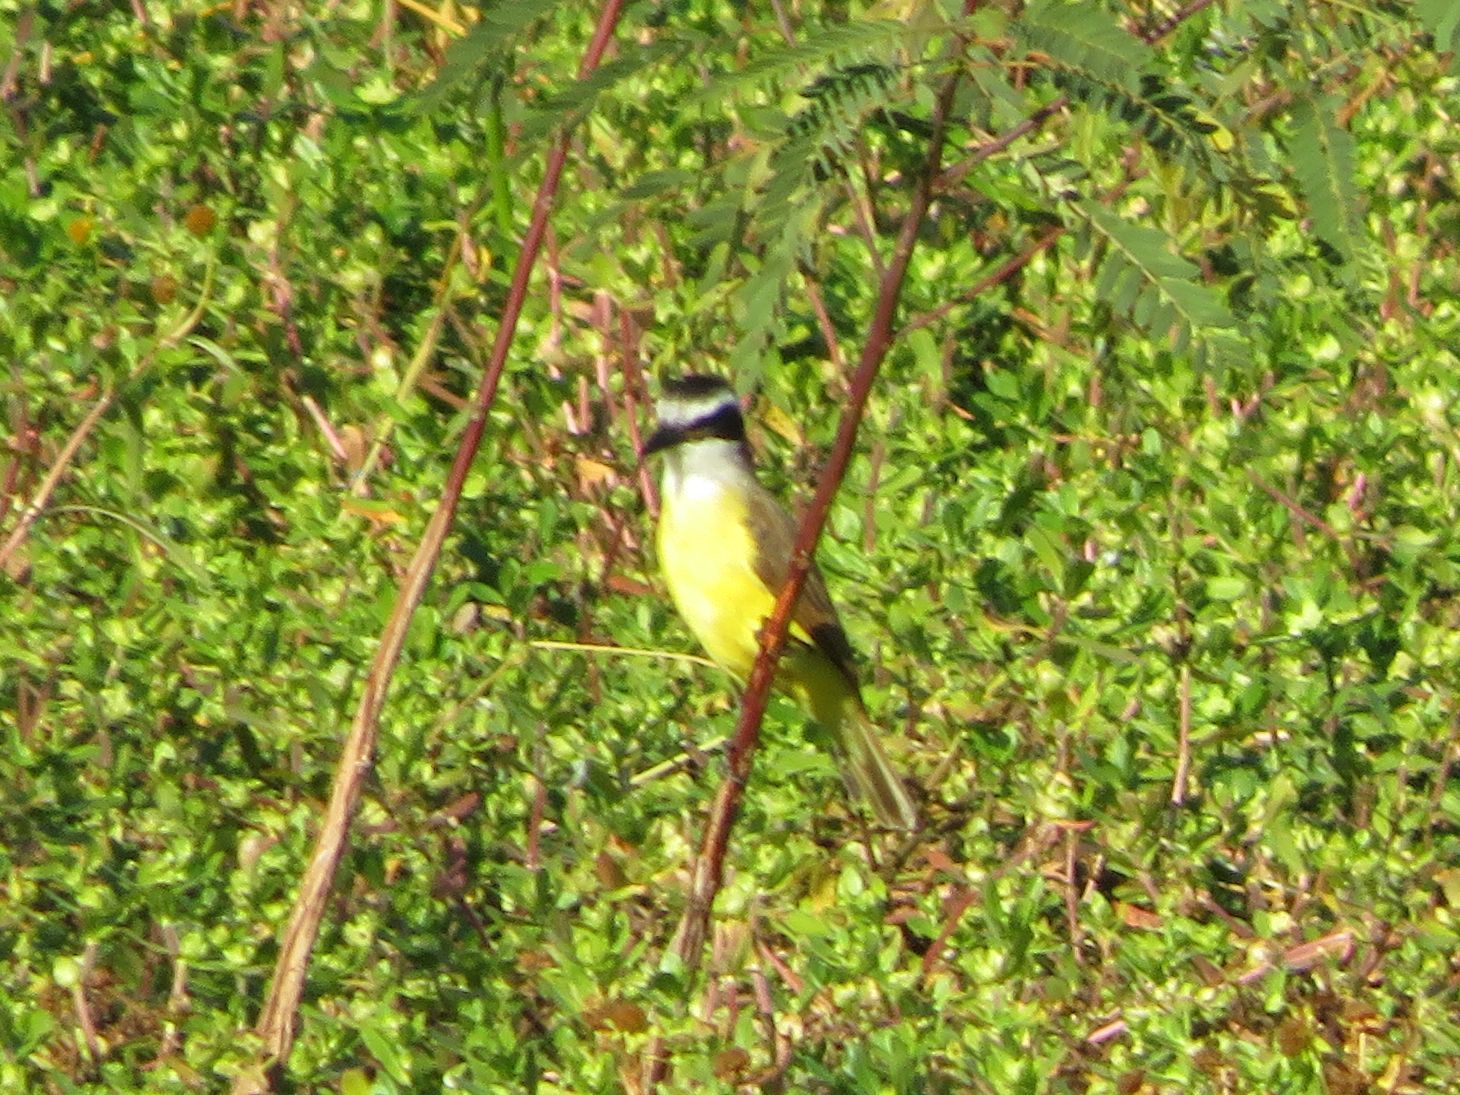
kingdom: Animalia
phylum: Chordata
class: Aves
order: Passeriformes
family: Tyrannidae
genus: Pitangus
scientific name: Pitangus sulphuratus
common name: Great kiskadee
